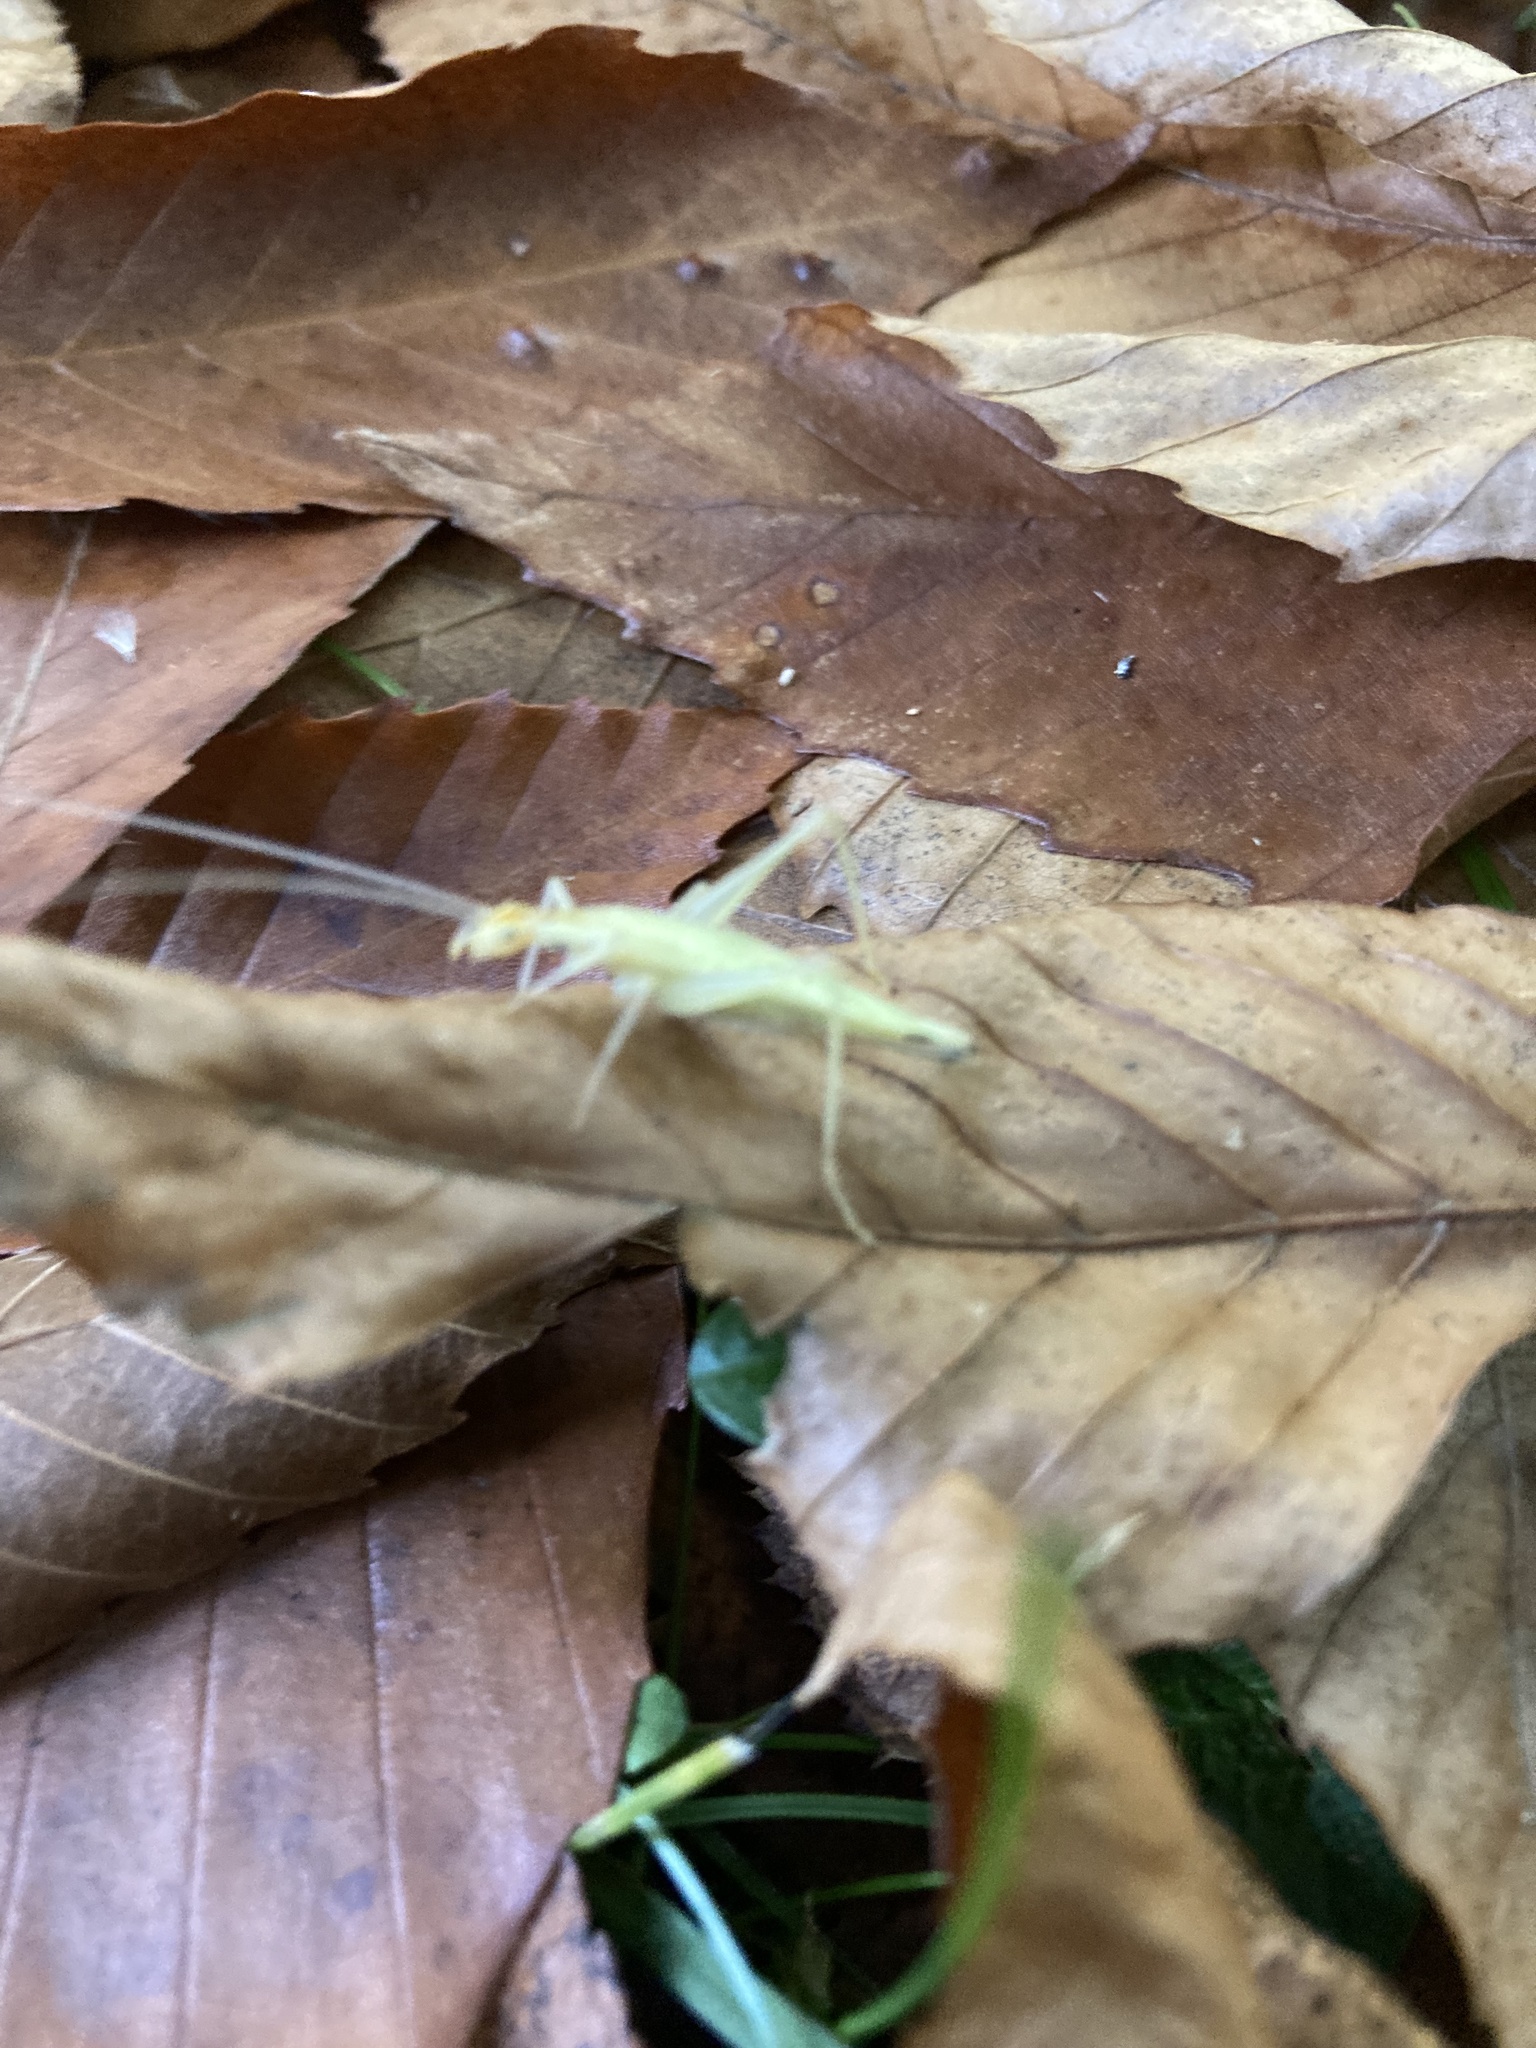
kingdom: Animalia
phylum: Arthropoda
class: Insecta
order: Orthoptera
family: Gryllidae
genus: Oecanthus
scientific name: Oecanthus niveus
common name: Narrow-winged tree cricket
